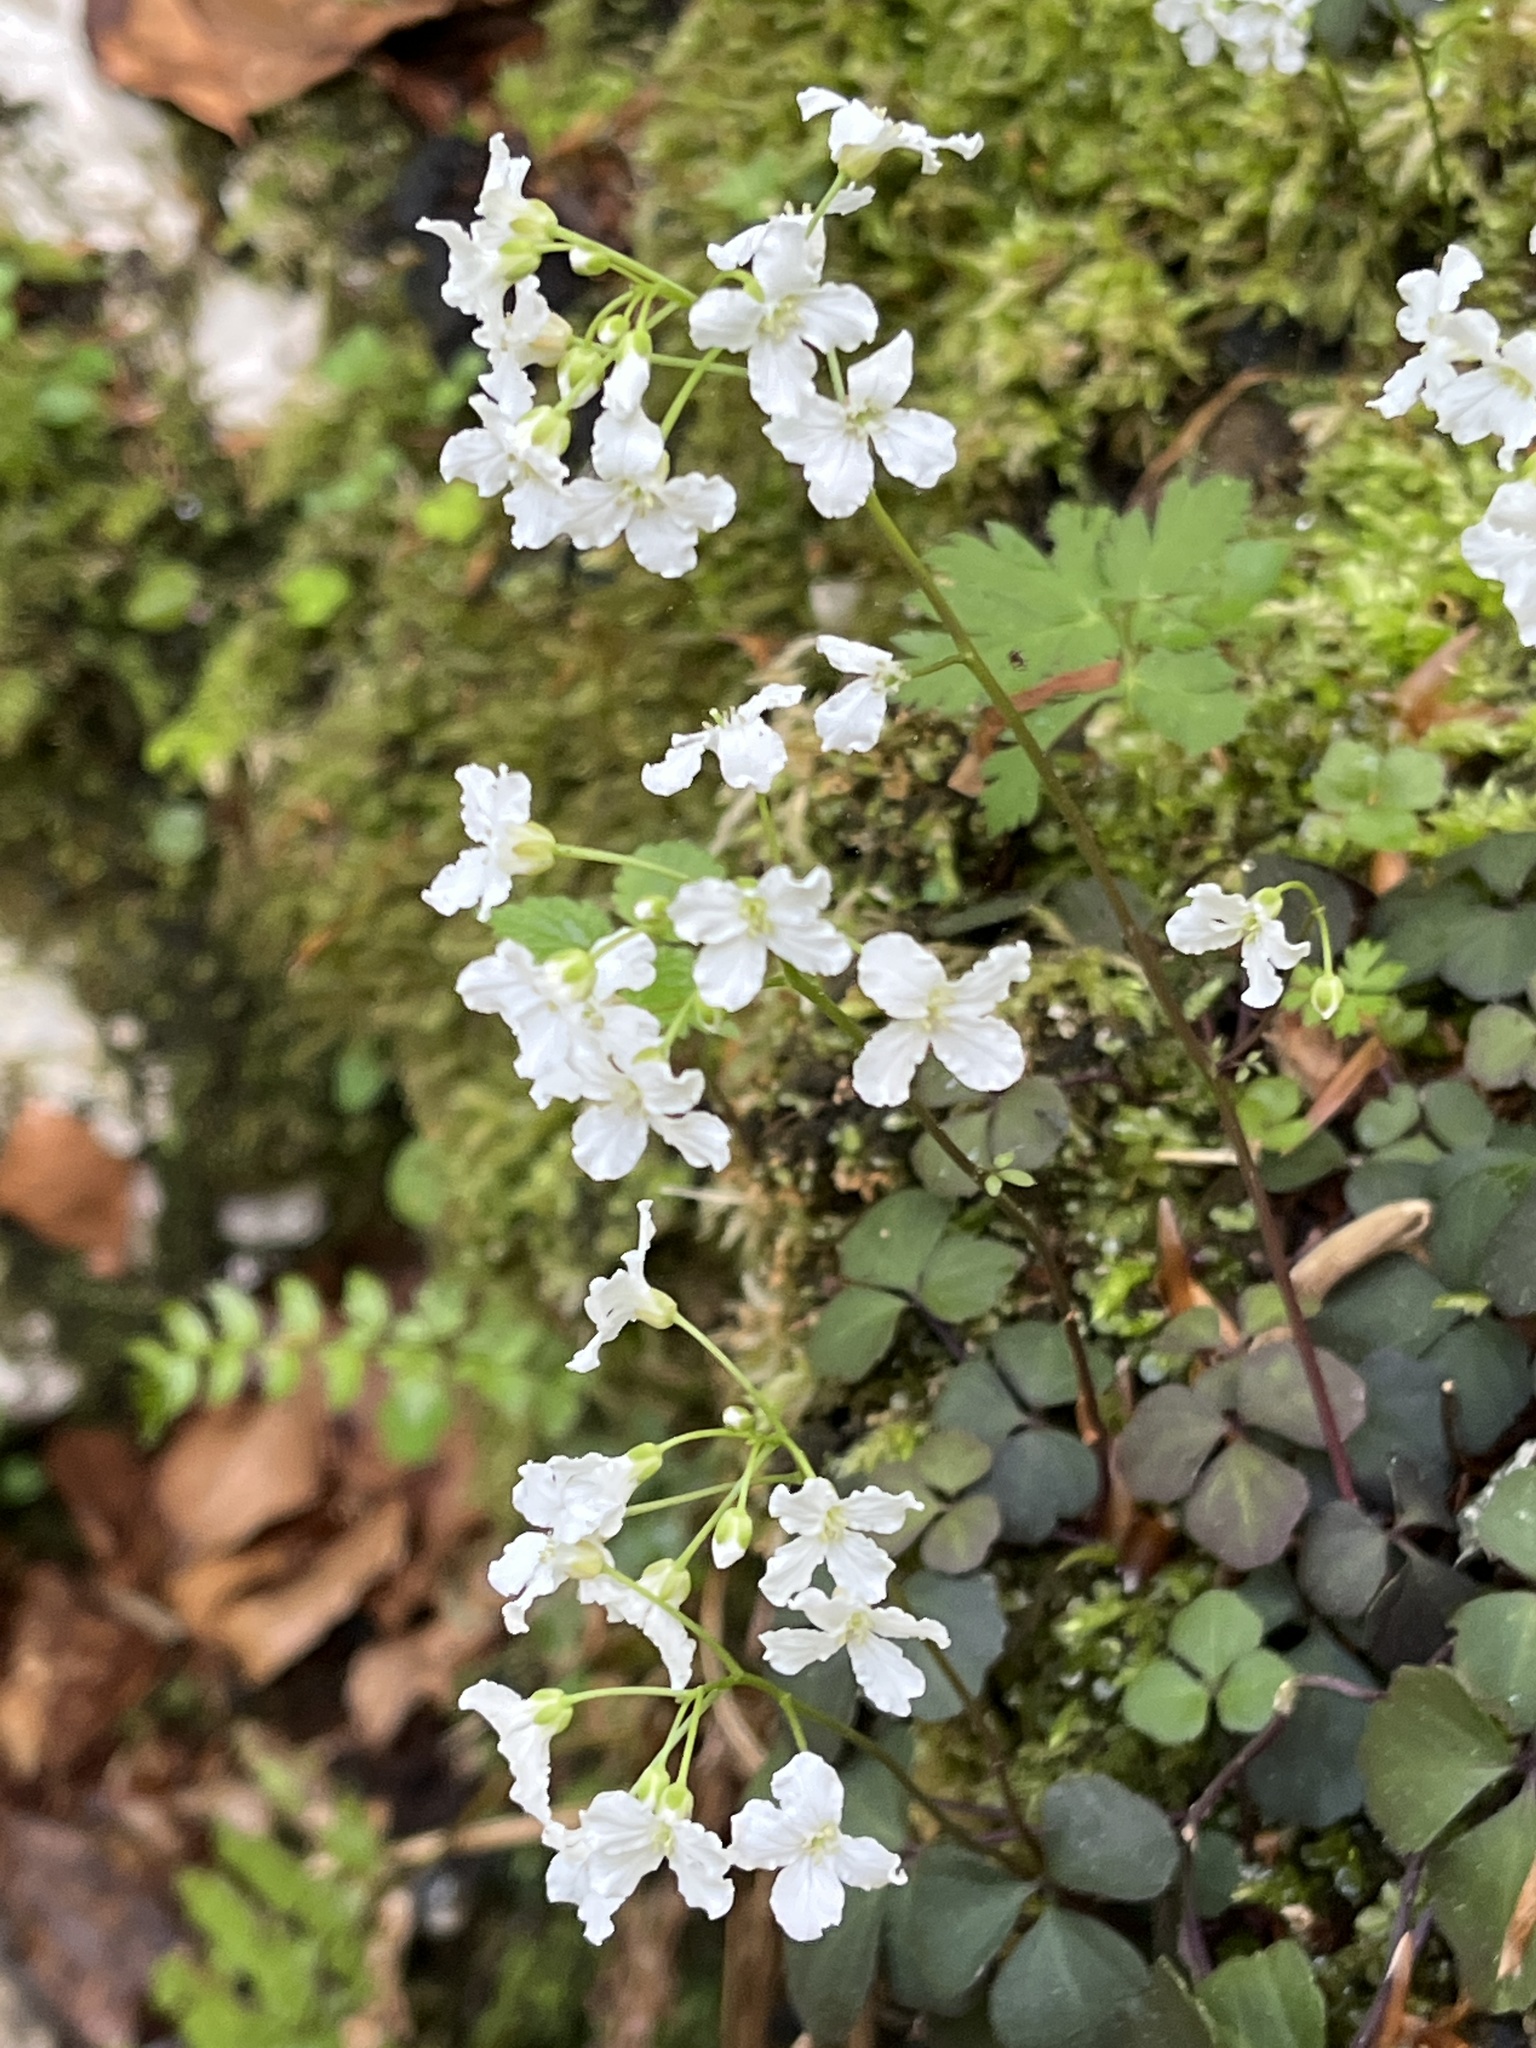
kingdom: Plantae
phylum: Tracheophyta
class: Magnoliopsida
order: Brassicales
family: Brassicaceae
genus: Cardamine
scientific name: Cardamine trifolia
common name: Trefoil cress
